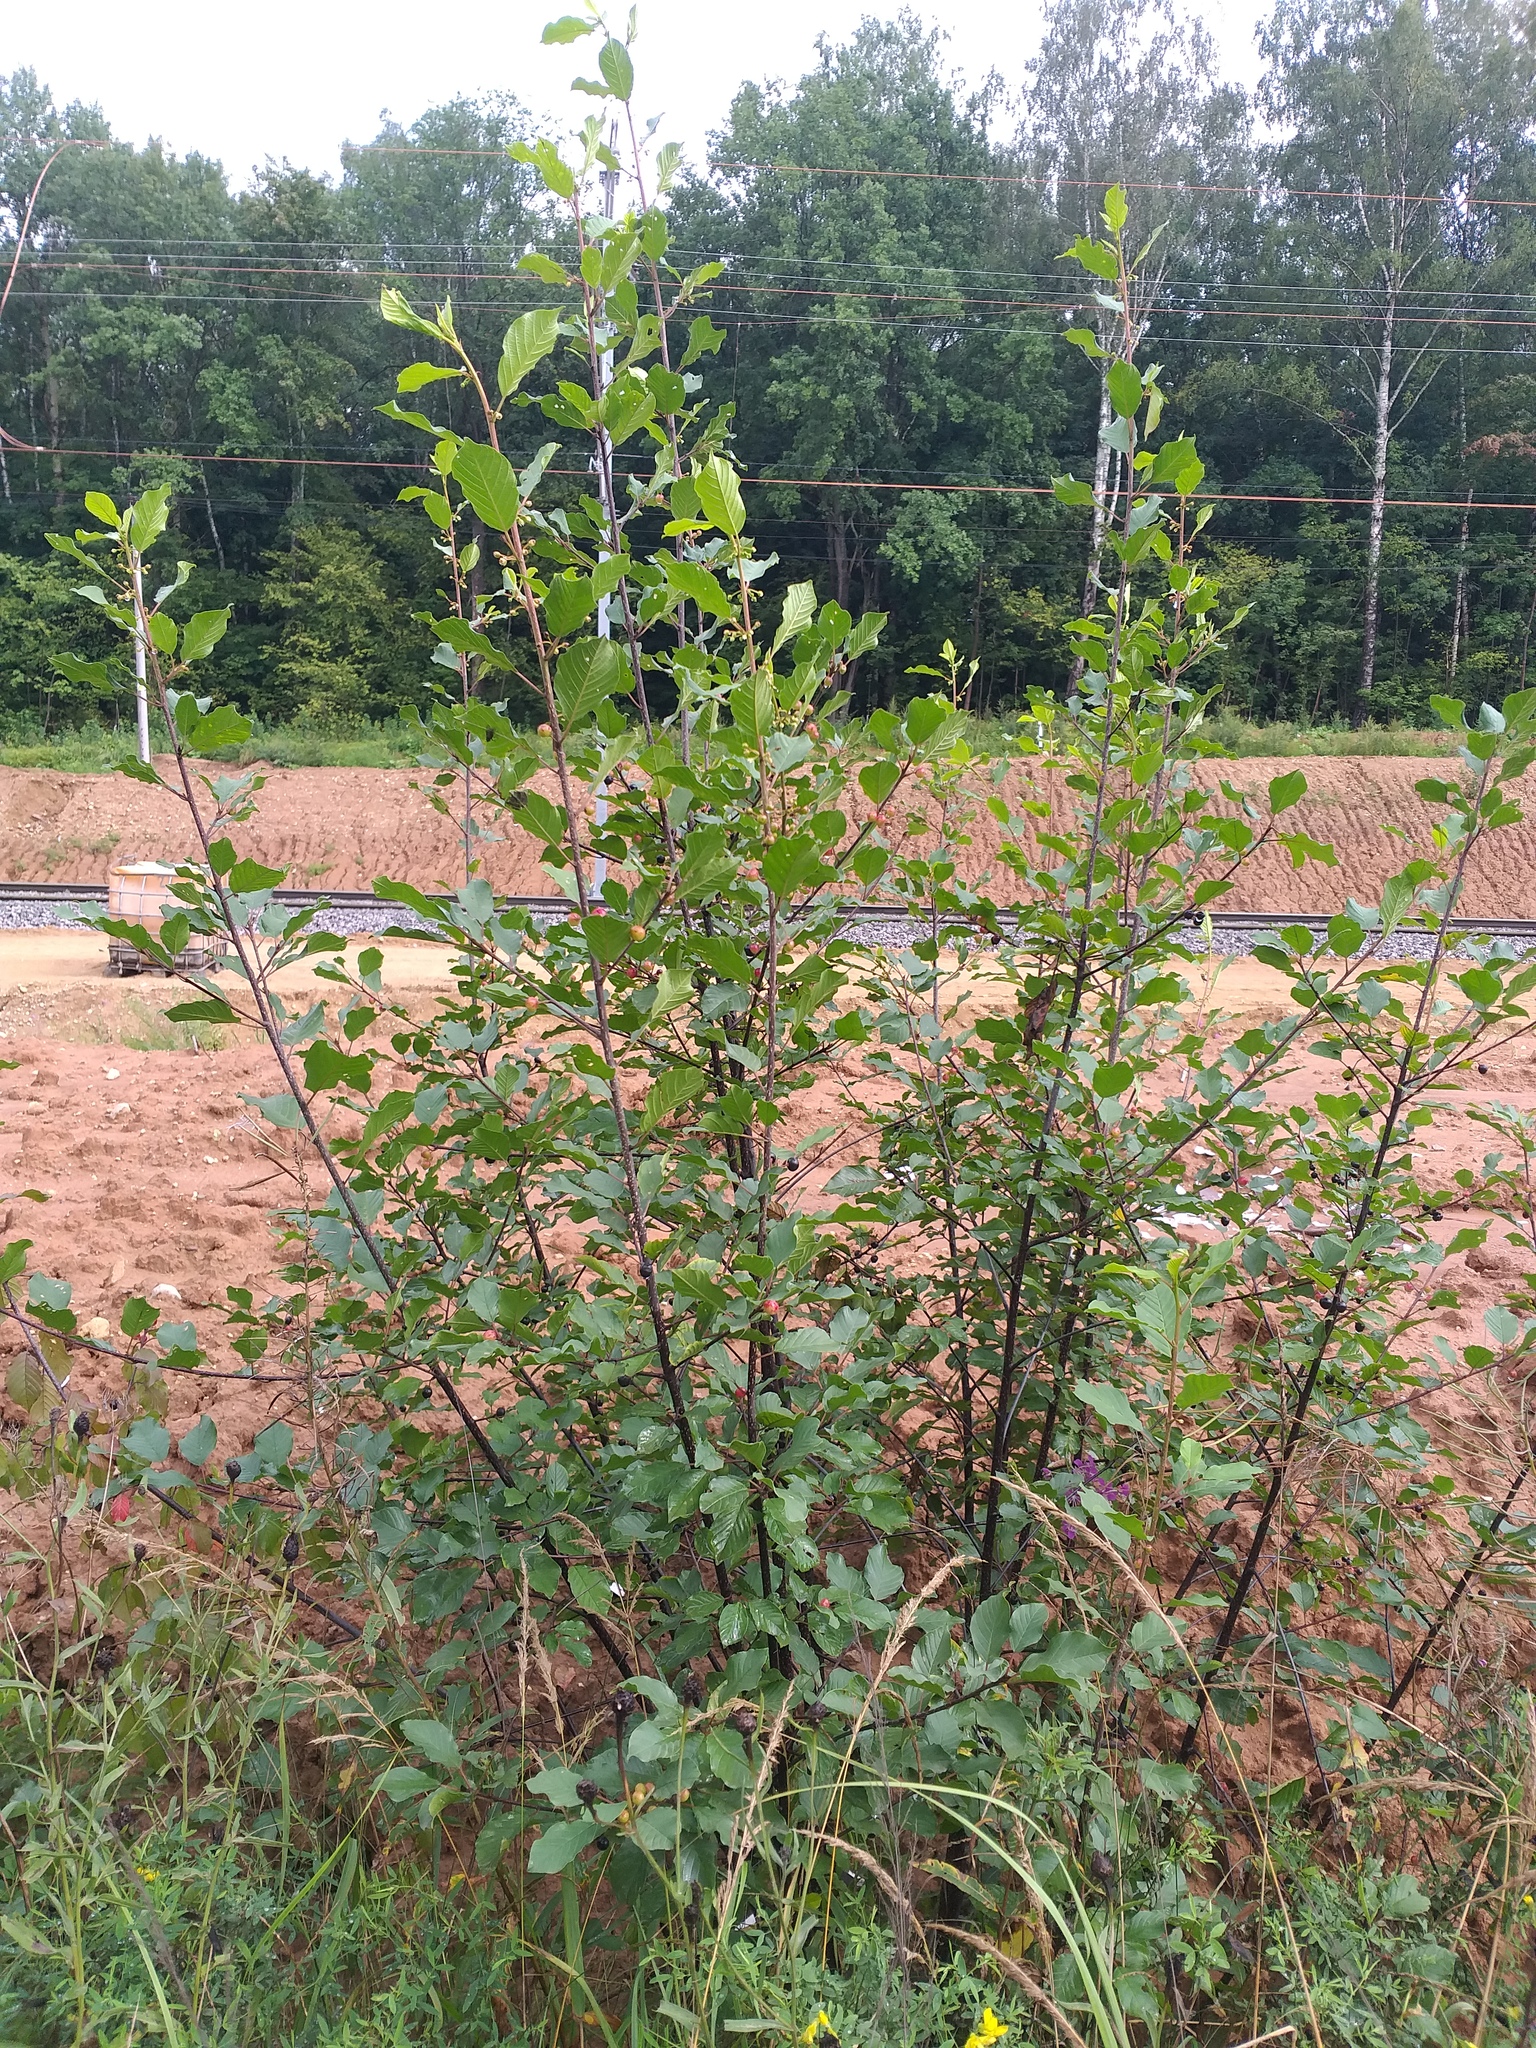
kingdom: Plantae
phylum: Tracheophyta
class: Magnoliopsida
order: Rosales
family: Rhamnaceae
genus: Frangula
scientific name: Frangula alnus
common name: Alder buckthorn
